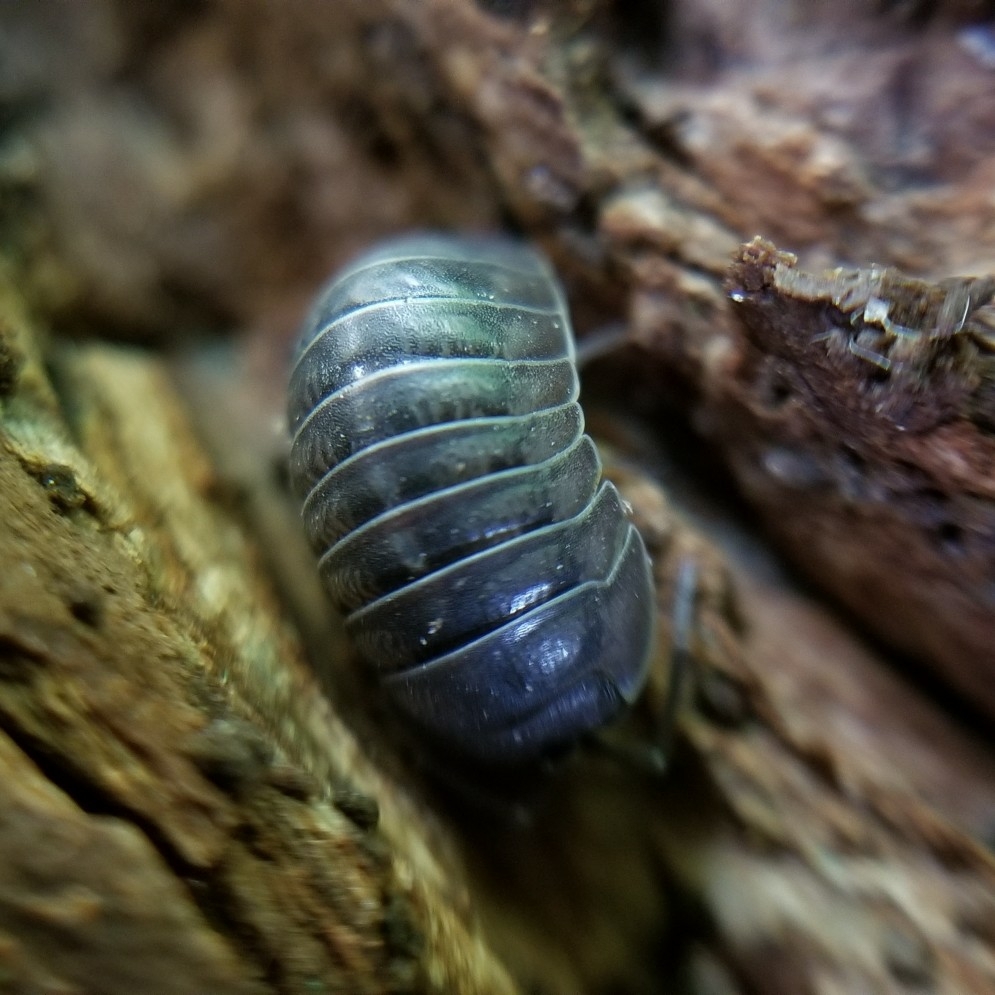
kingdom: Animalia
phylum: Arthropoda
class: Malacostraca
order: Isopoda
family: Armadillidiidae
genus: Armadillidium
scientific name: Armadillidium vulgare
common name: Common pill woodlouse
